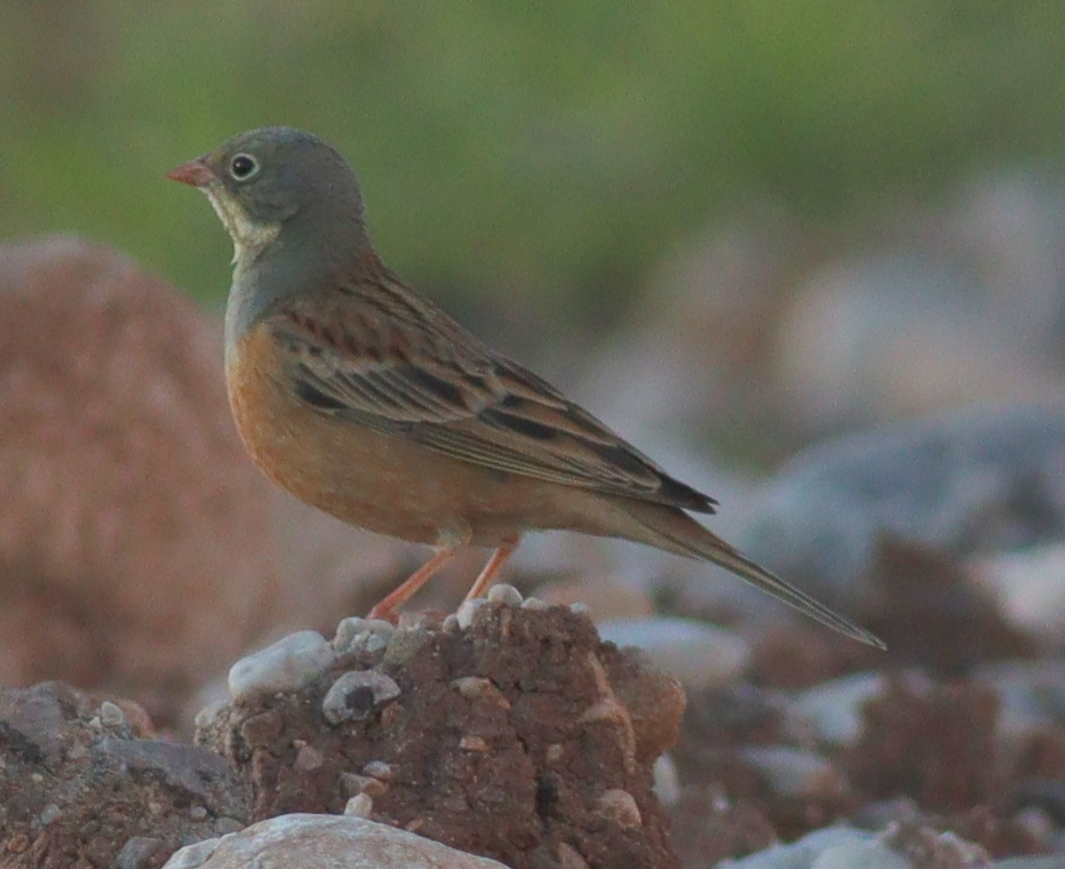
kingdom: Animalia
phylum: Chordata
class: Aves
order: Passeriformes
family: Emberizidae
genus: Emberiza
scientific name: Emberiza hortulana
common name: Ortolan bunting
